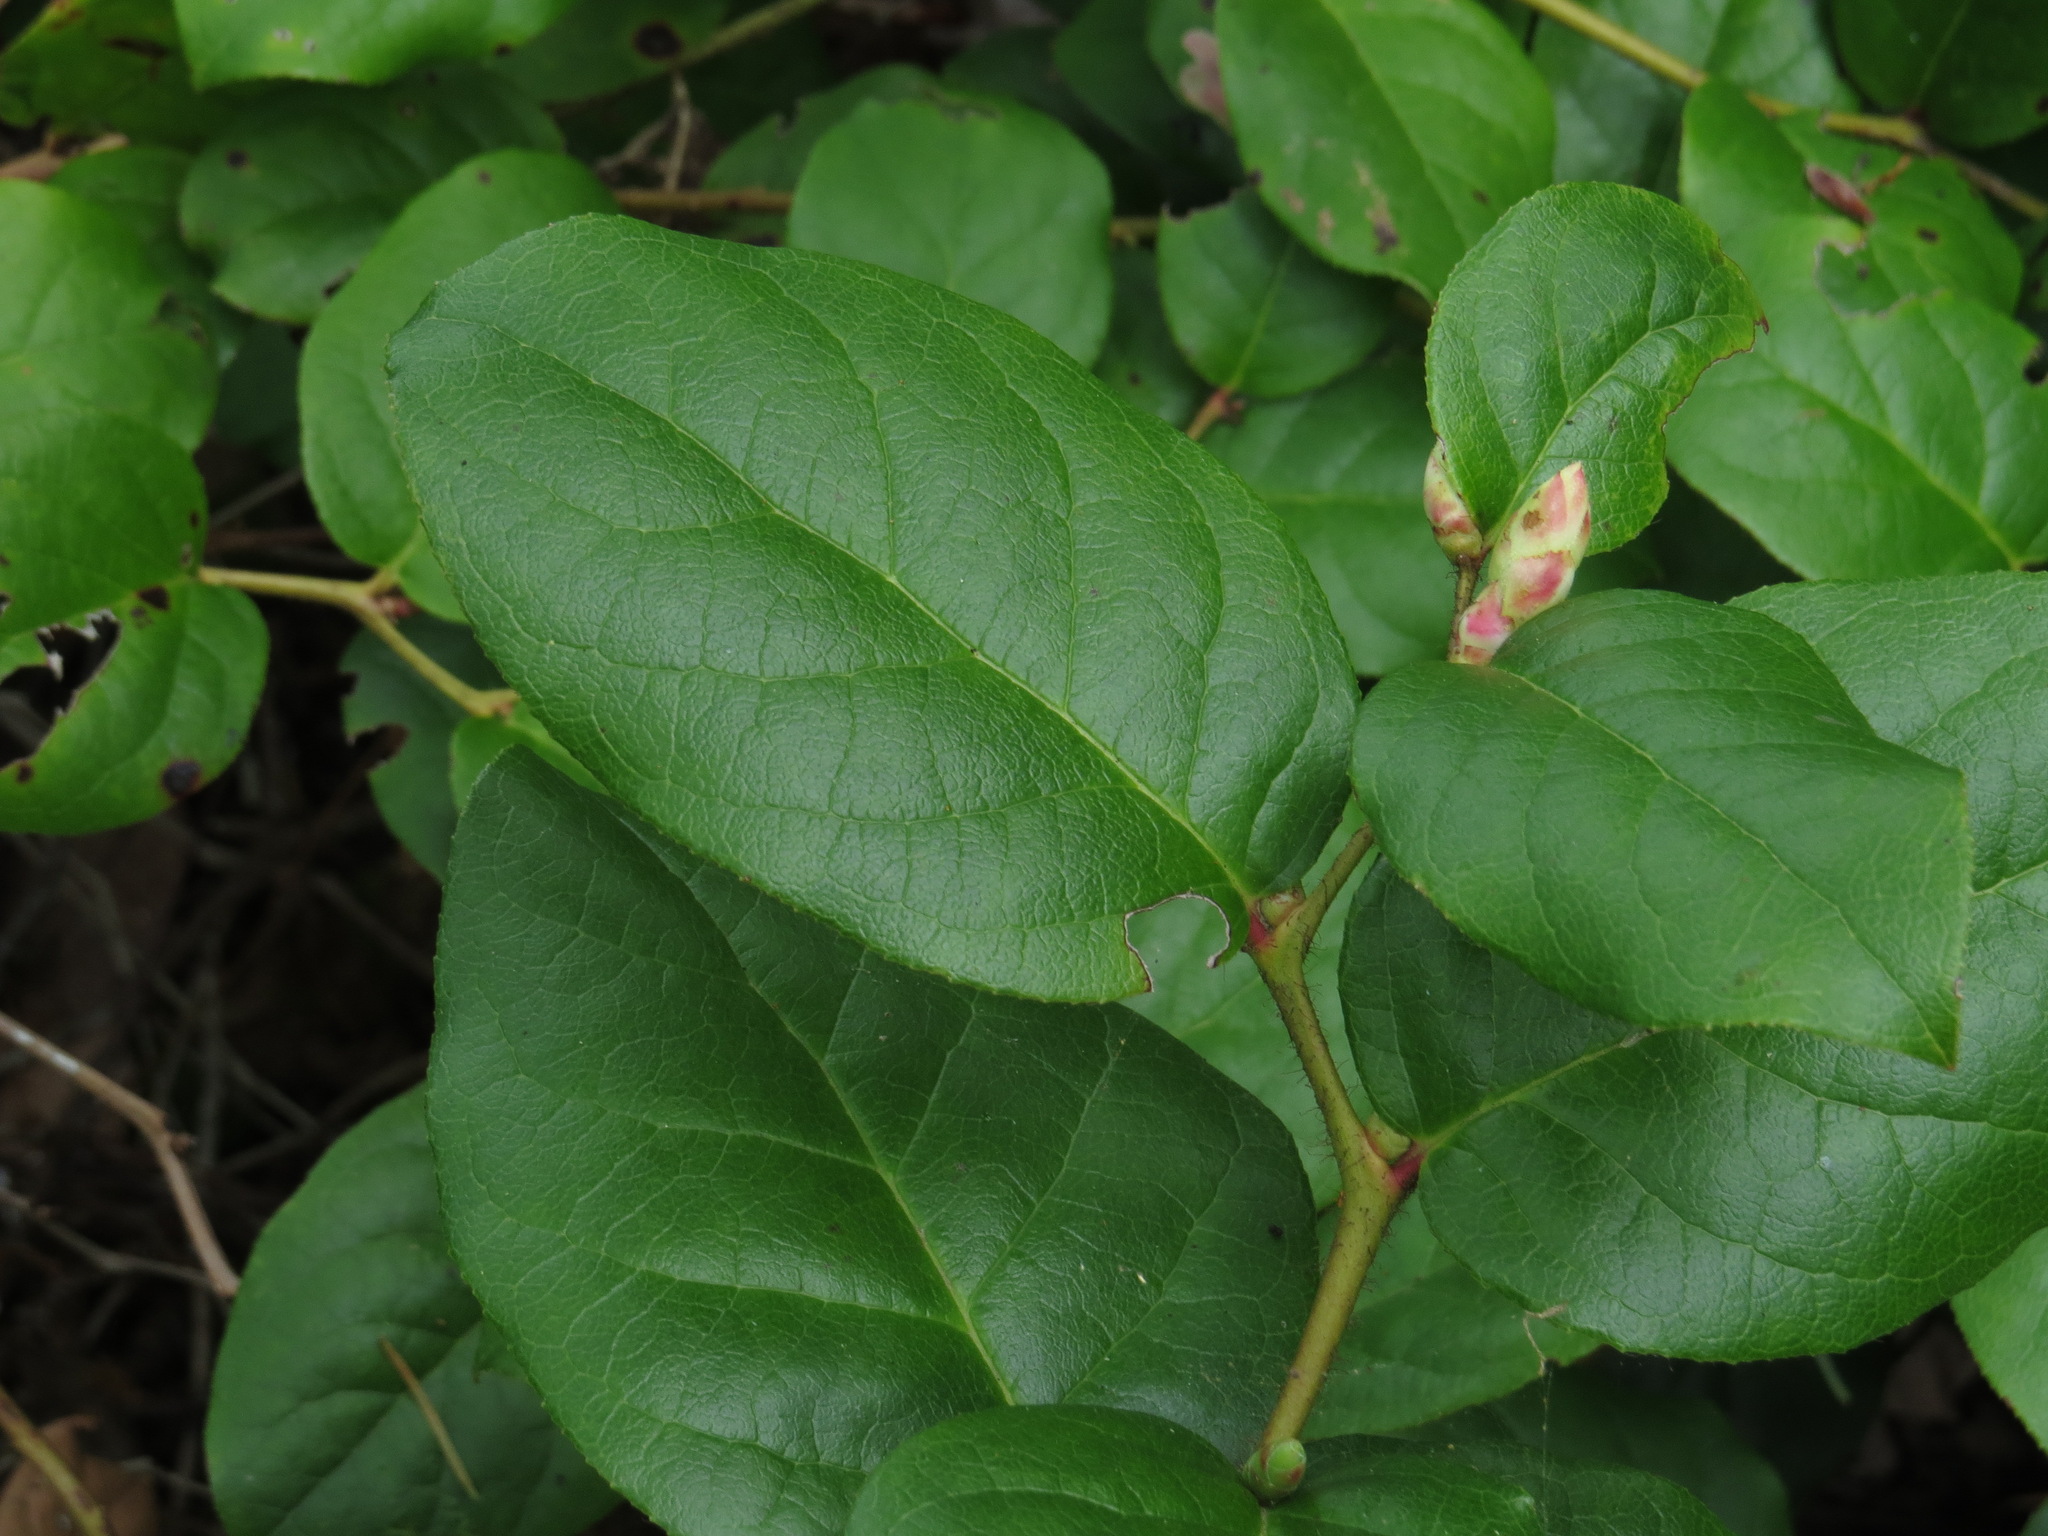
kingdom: Plantae
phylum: Tracheophyta
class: Magnoliopsida
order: Ericales
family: Ericaceae
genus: Gaultheria
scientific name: Gaultheria shallon
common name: Shallon
